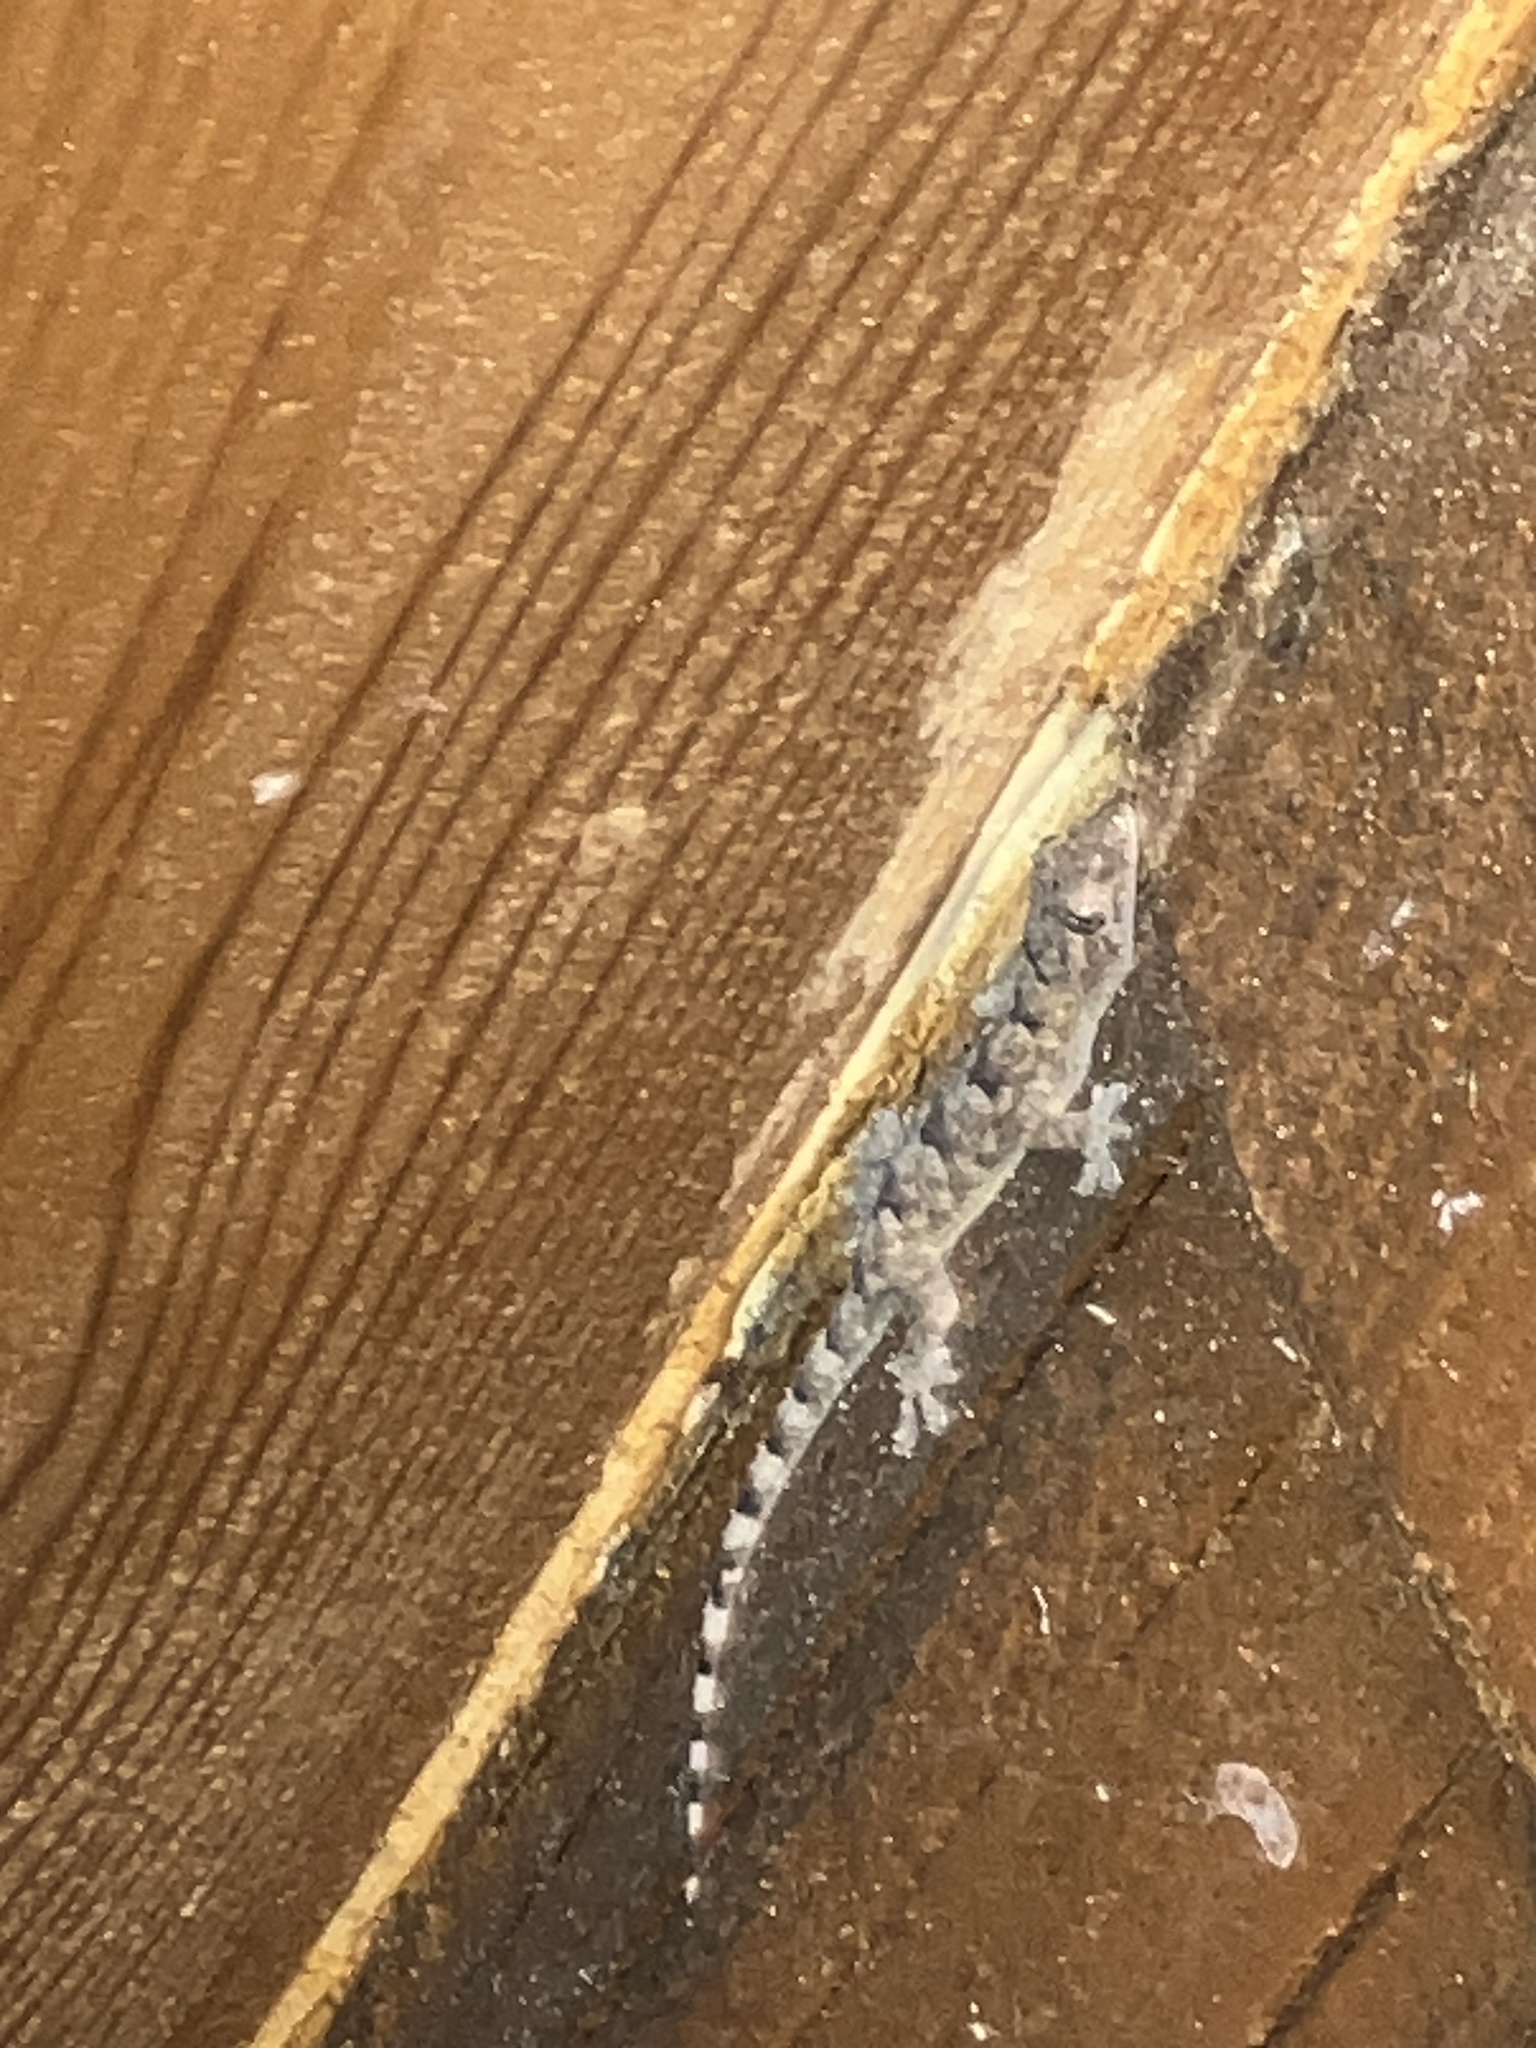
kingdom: Animalia
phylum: Chordata
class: Squamata
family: Gekkonidae
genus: Hemidactylus
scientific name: Hemidactylus mabouia
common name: House gecko
